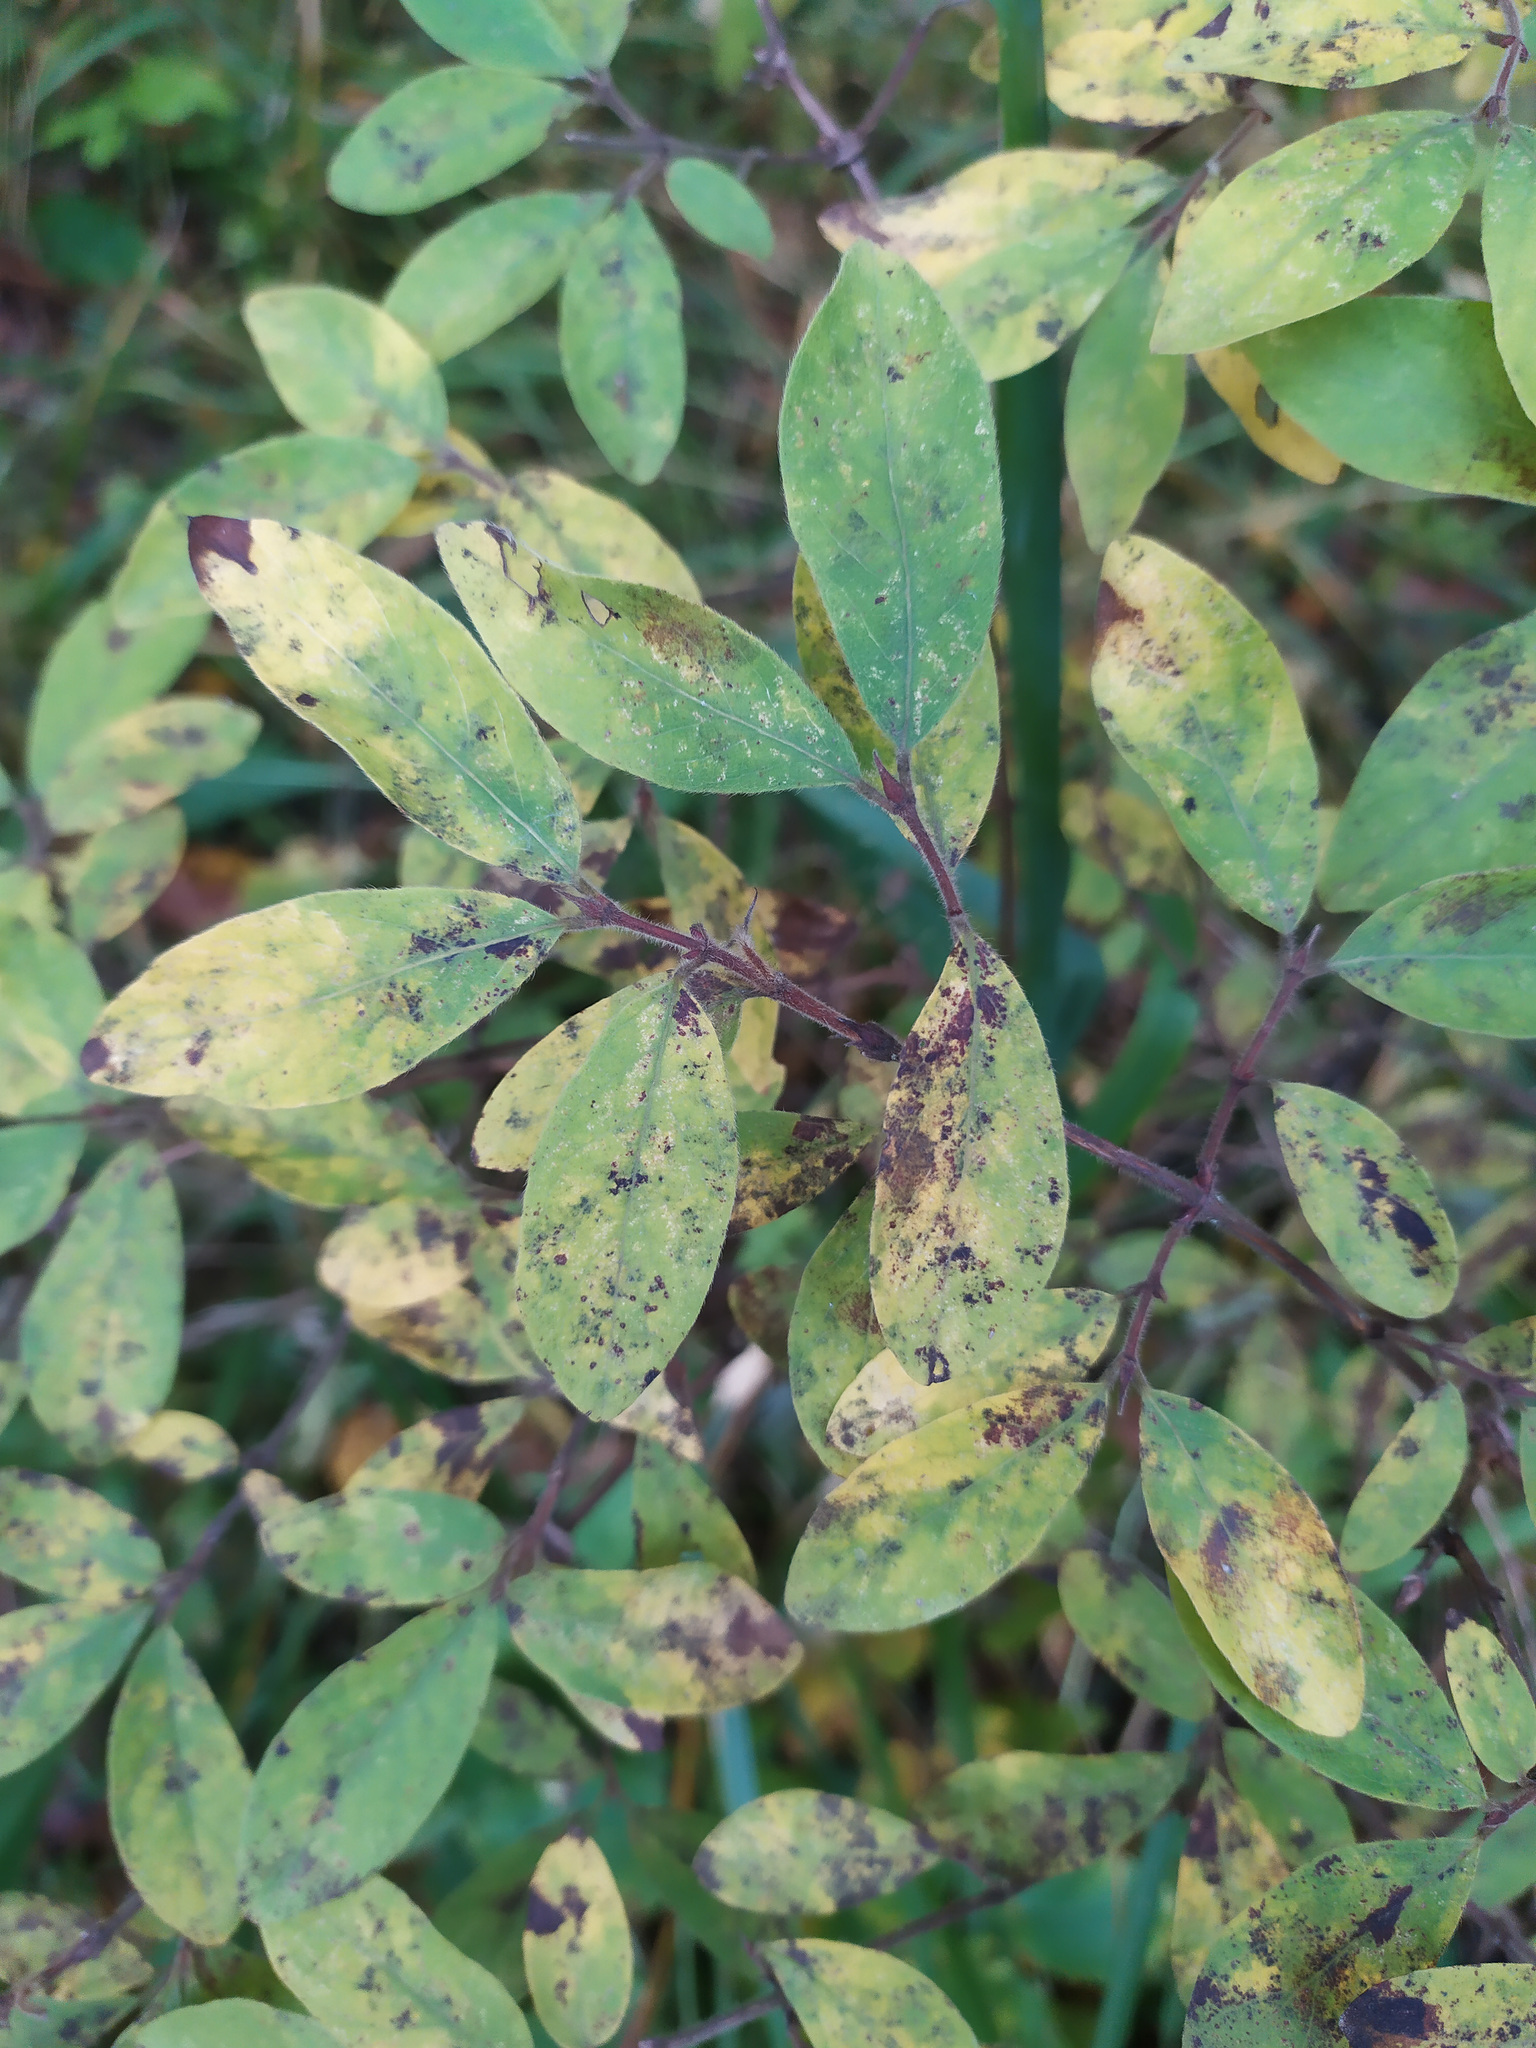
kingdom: Plantae
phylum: Tracheophyta
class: Magnoliopsida
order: Dipsacales
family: Caprifoliaceae
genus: Lonicera
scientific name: Lonicera caerulea
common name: Blue honeysuckle
